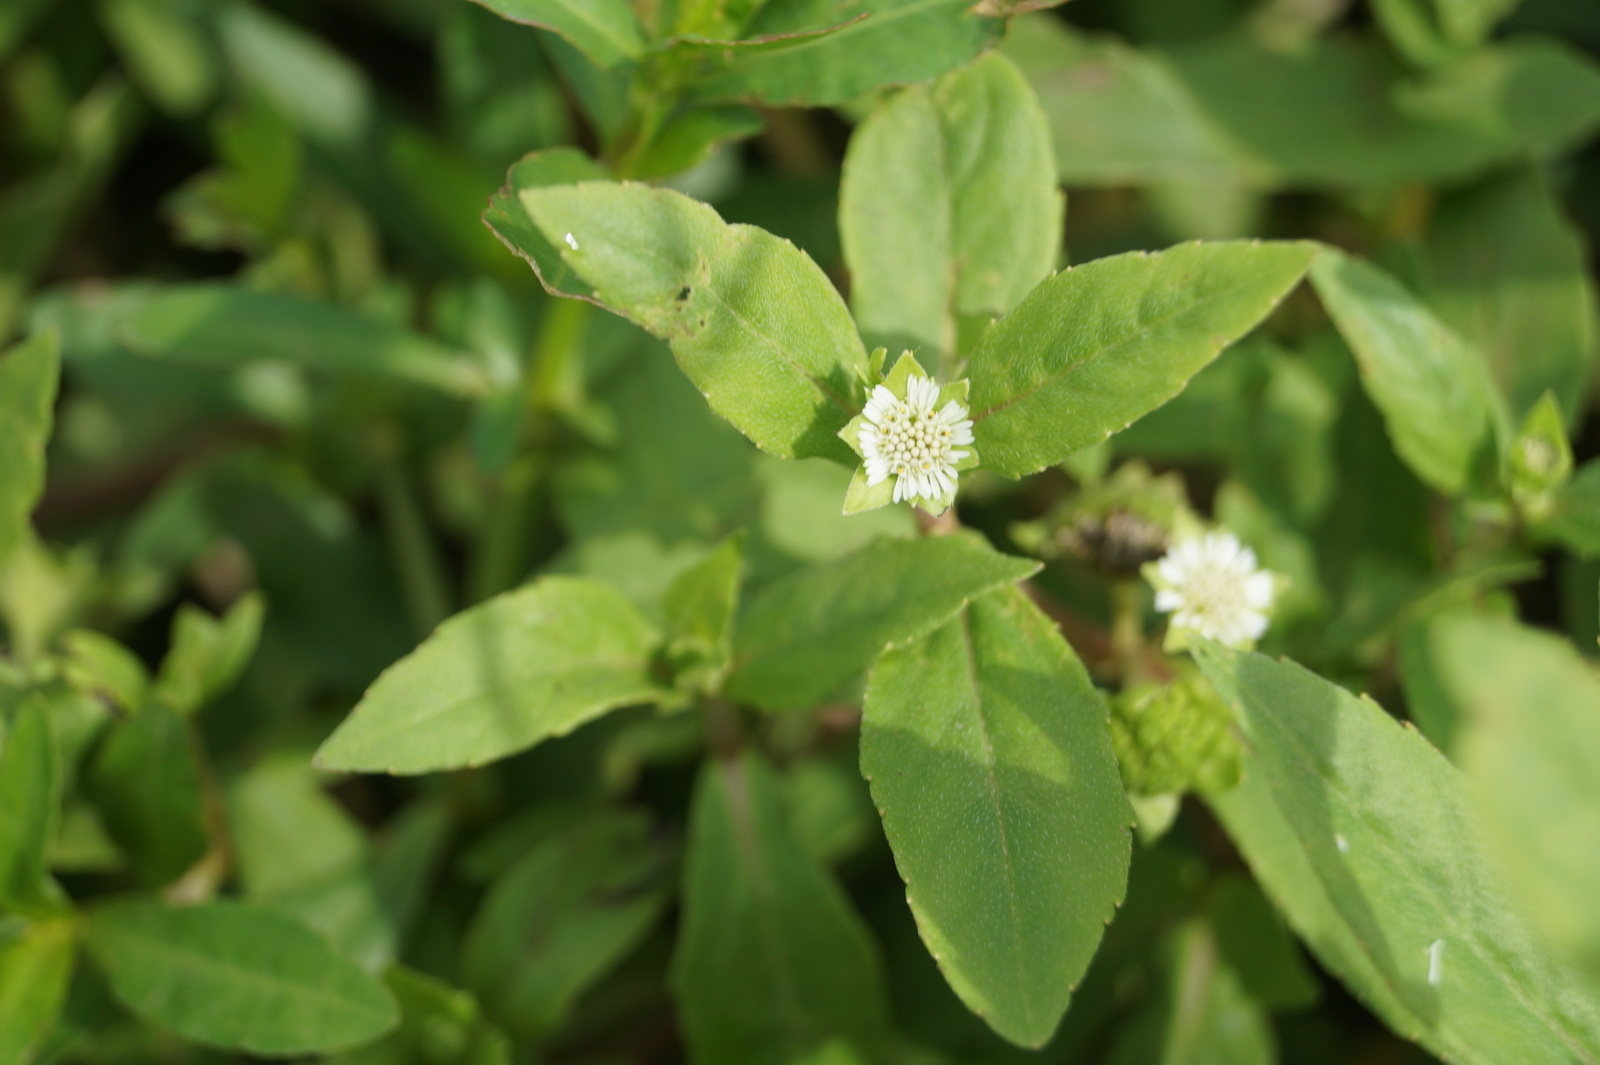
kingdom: Plantae
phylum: Tracheophyta
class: Magnoliopsida
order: Asterales
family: Asteraceae
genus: Eclipta
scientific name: Eclipta prostrata
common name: False daisy
